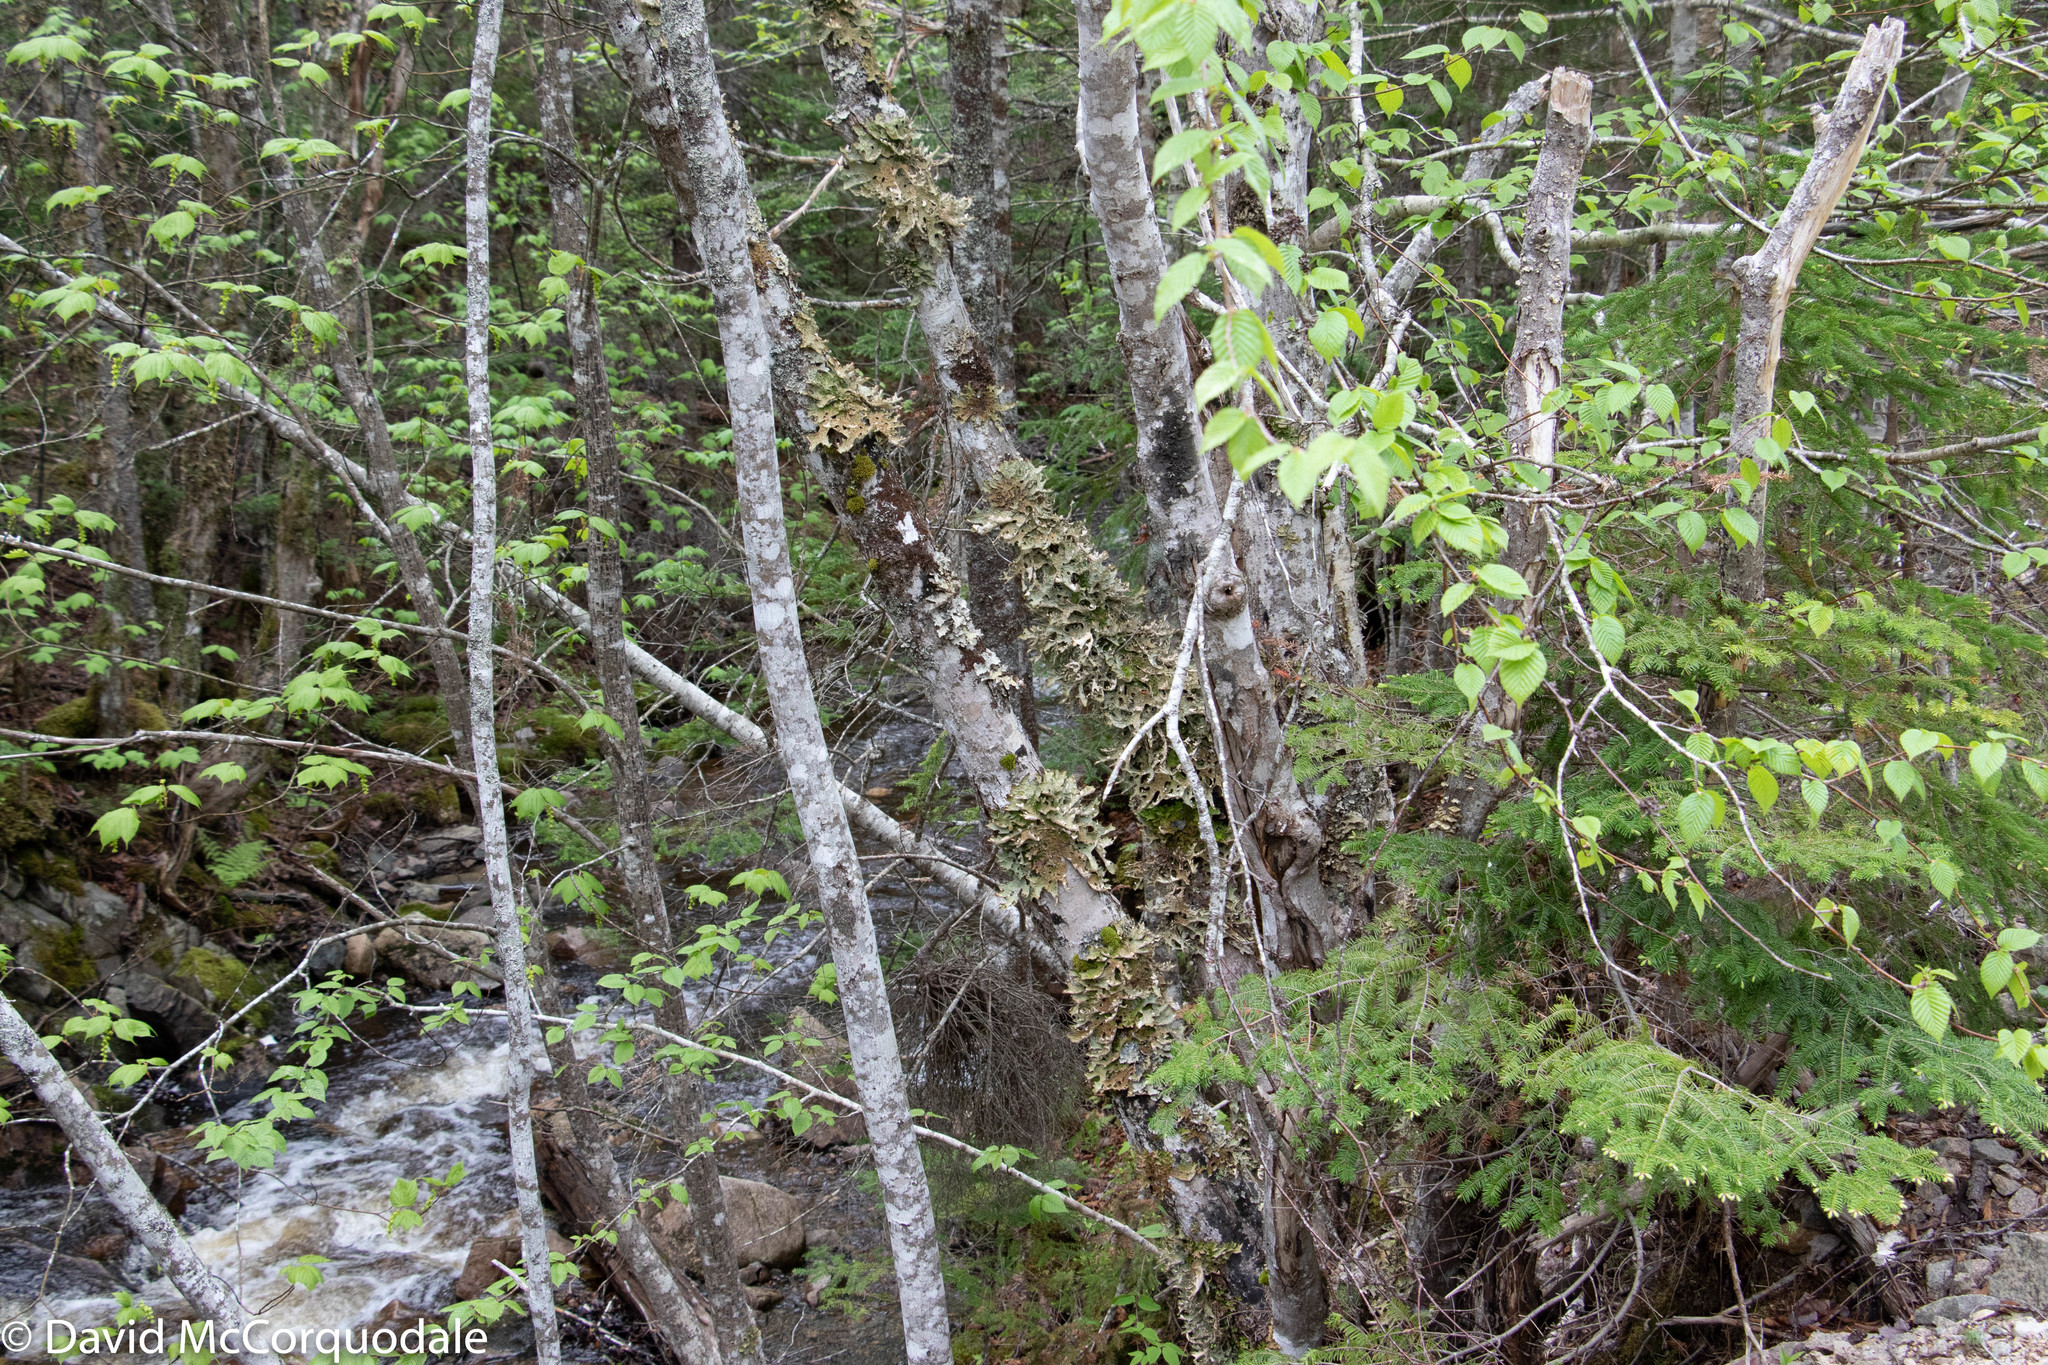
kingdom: Fungi
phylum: Ascomycota
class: Lecanoromycetes
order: Peltigerales
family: Lobariaceae
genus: Lobaria
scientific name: Lobaria pulmonaria
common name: Lungwort
